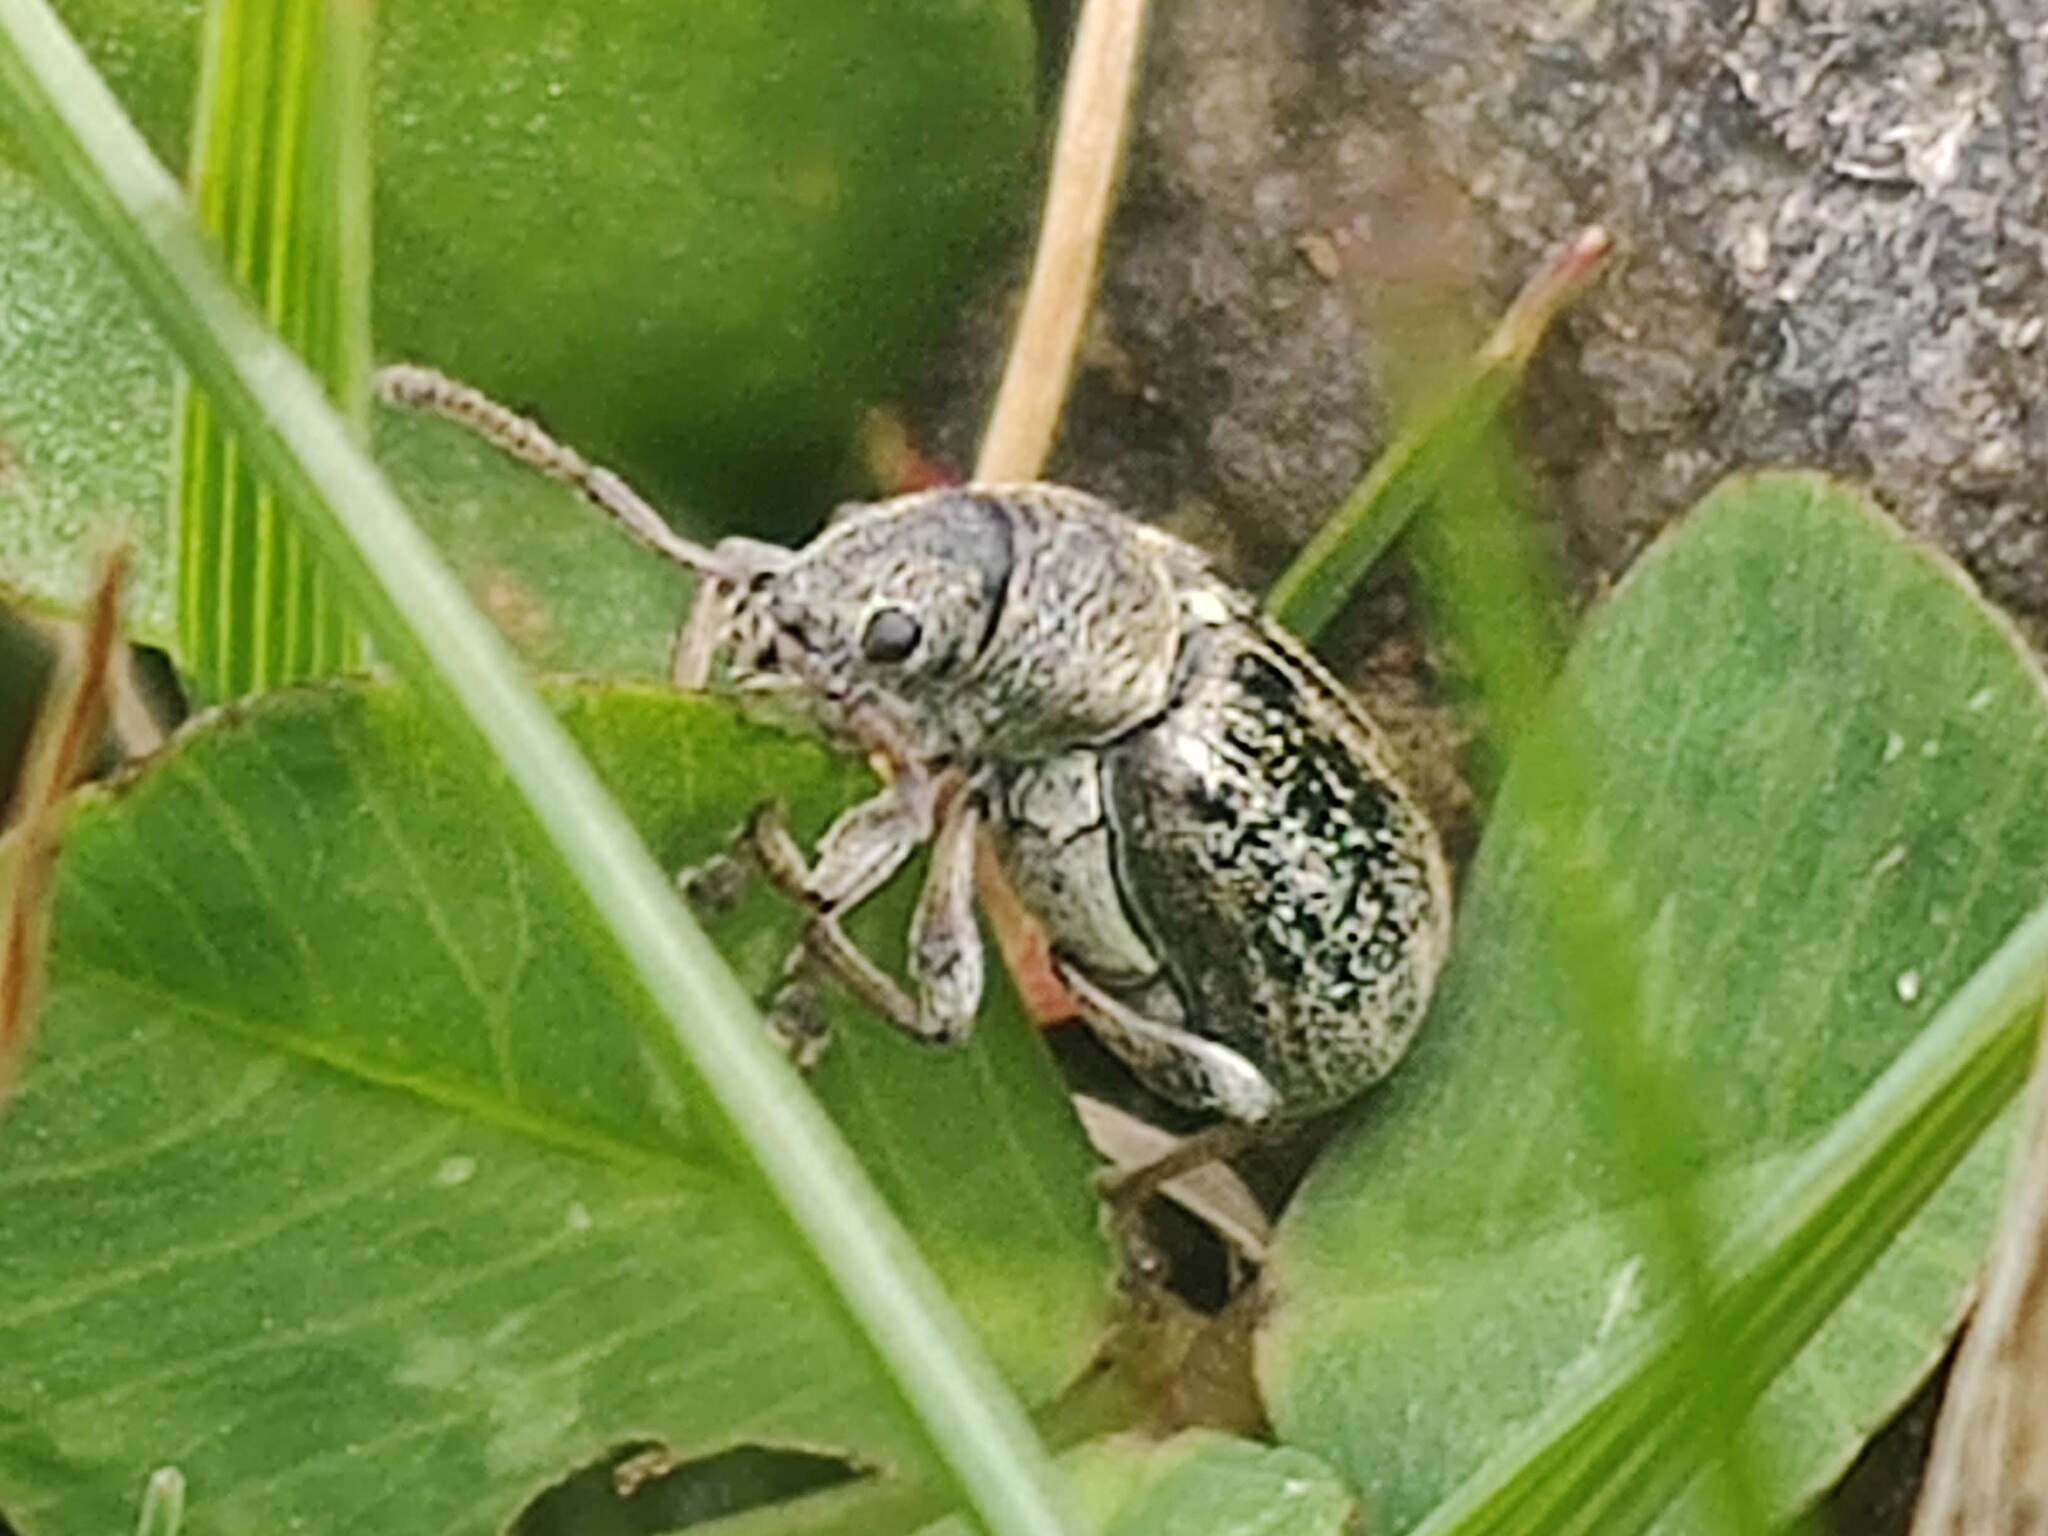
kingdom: Animalia
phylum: Arthropoda
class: Insecta
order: Coleoptera
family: Curculionidae
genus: Phyllobius
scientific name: Phyllobius pyri
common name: Common leaf weevil
